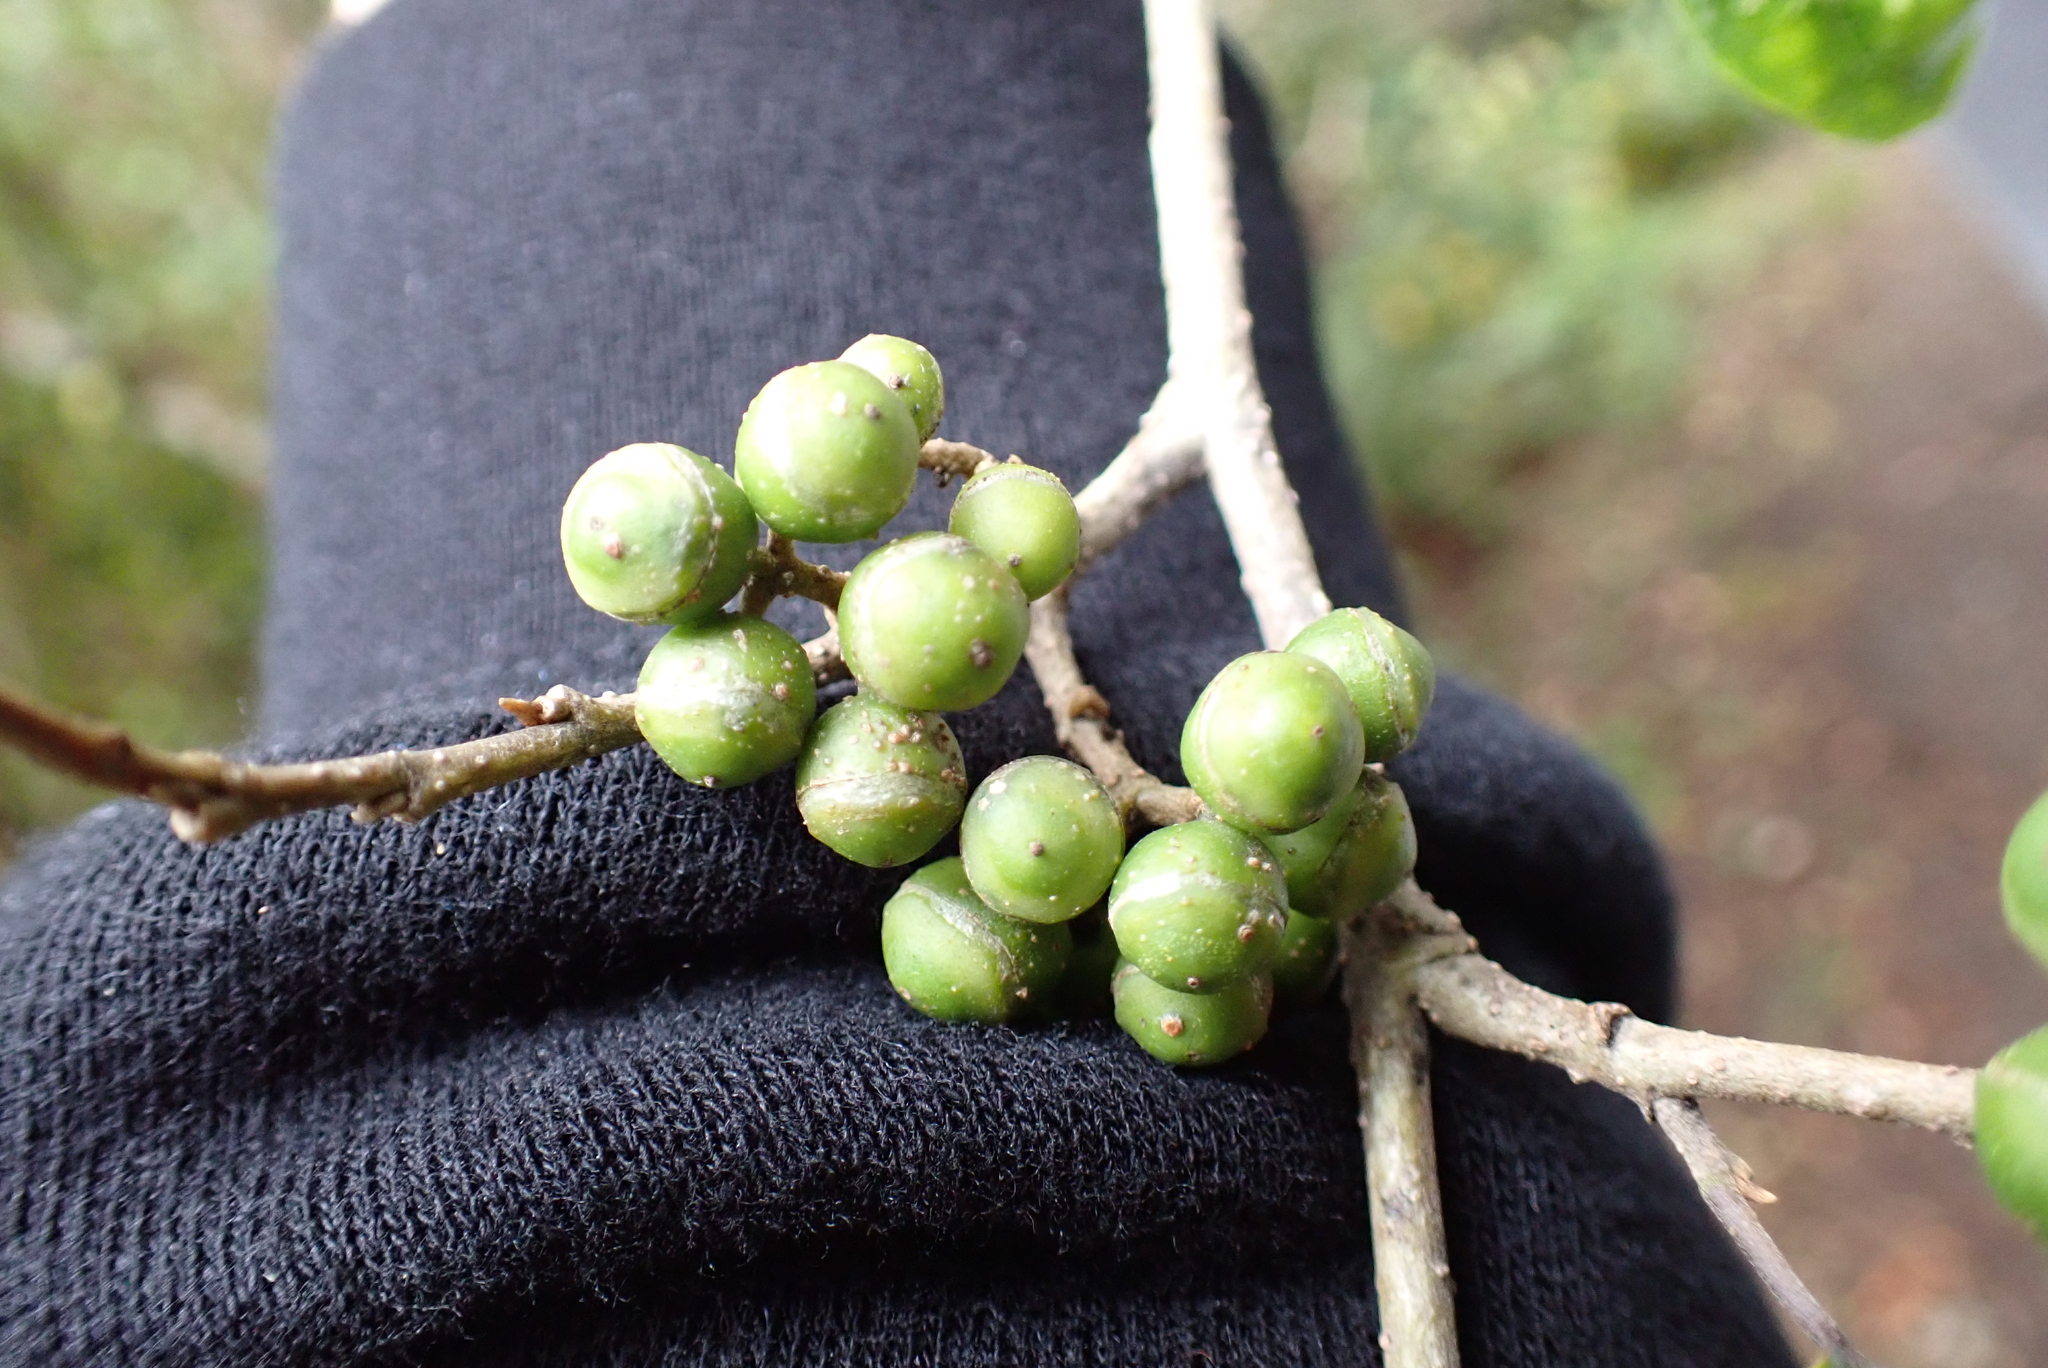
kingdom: Plantae
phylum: Tracheophyta
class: Magnoliopsida
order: Asterales
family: Rousseaceae
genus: Carpodetus
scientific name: Carpodetus serratus
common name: White mapau
